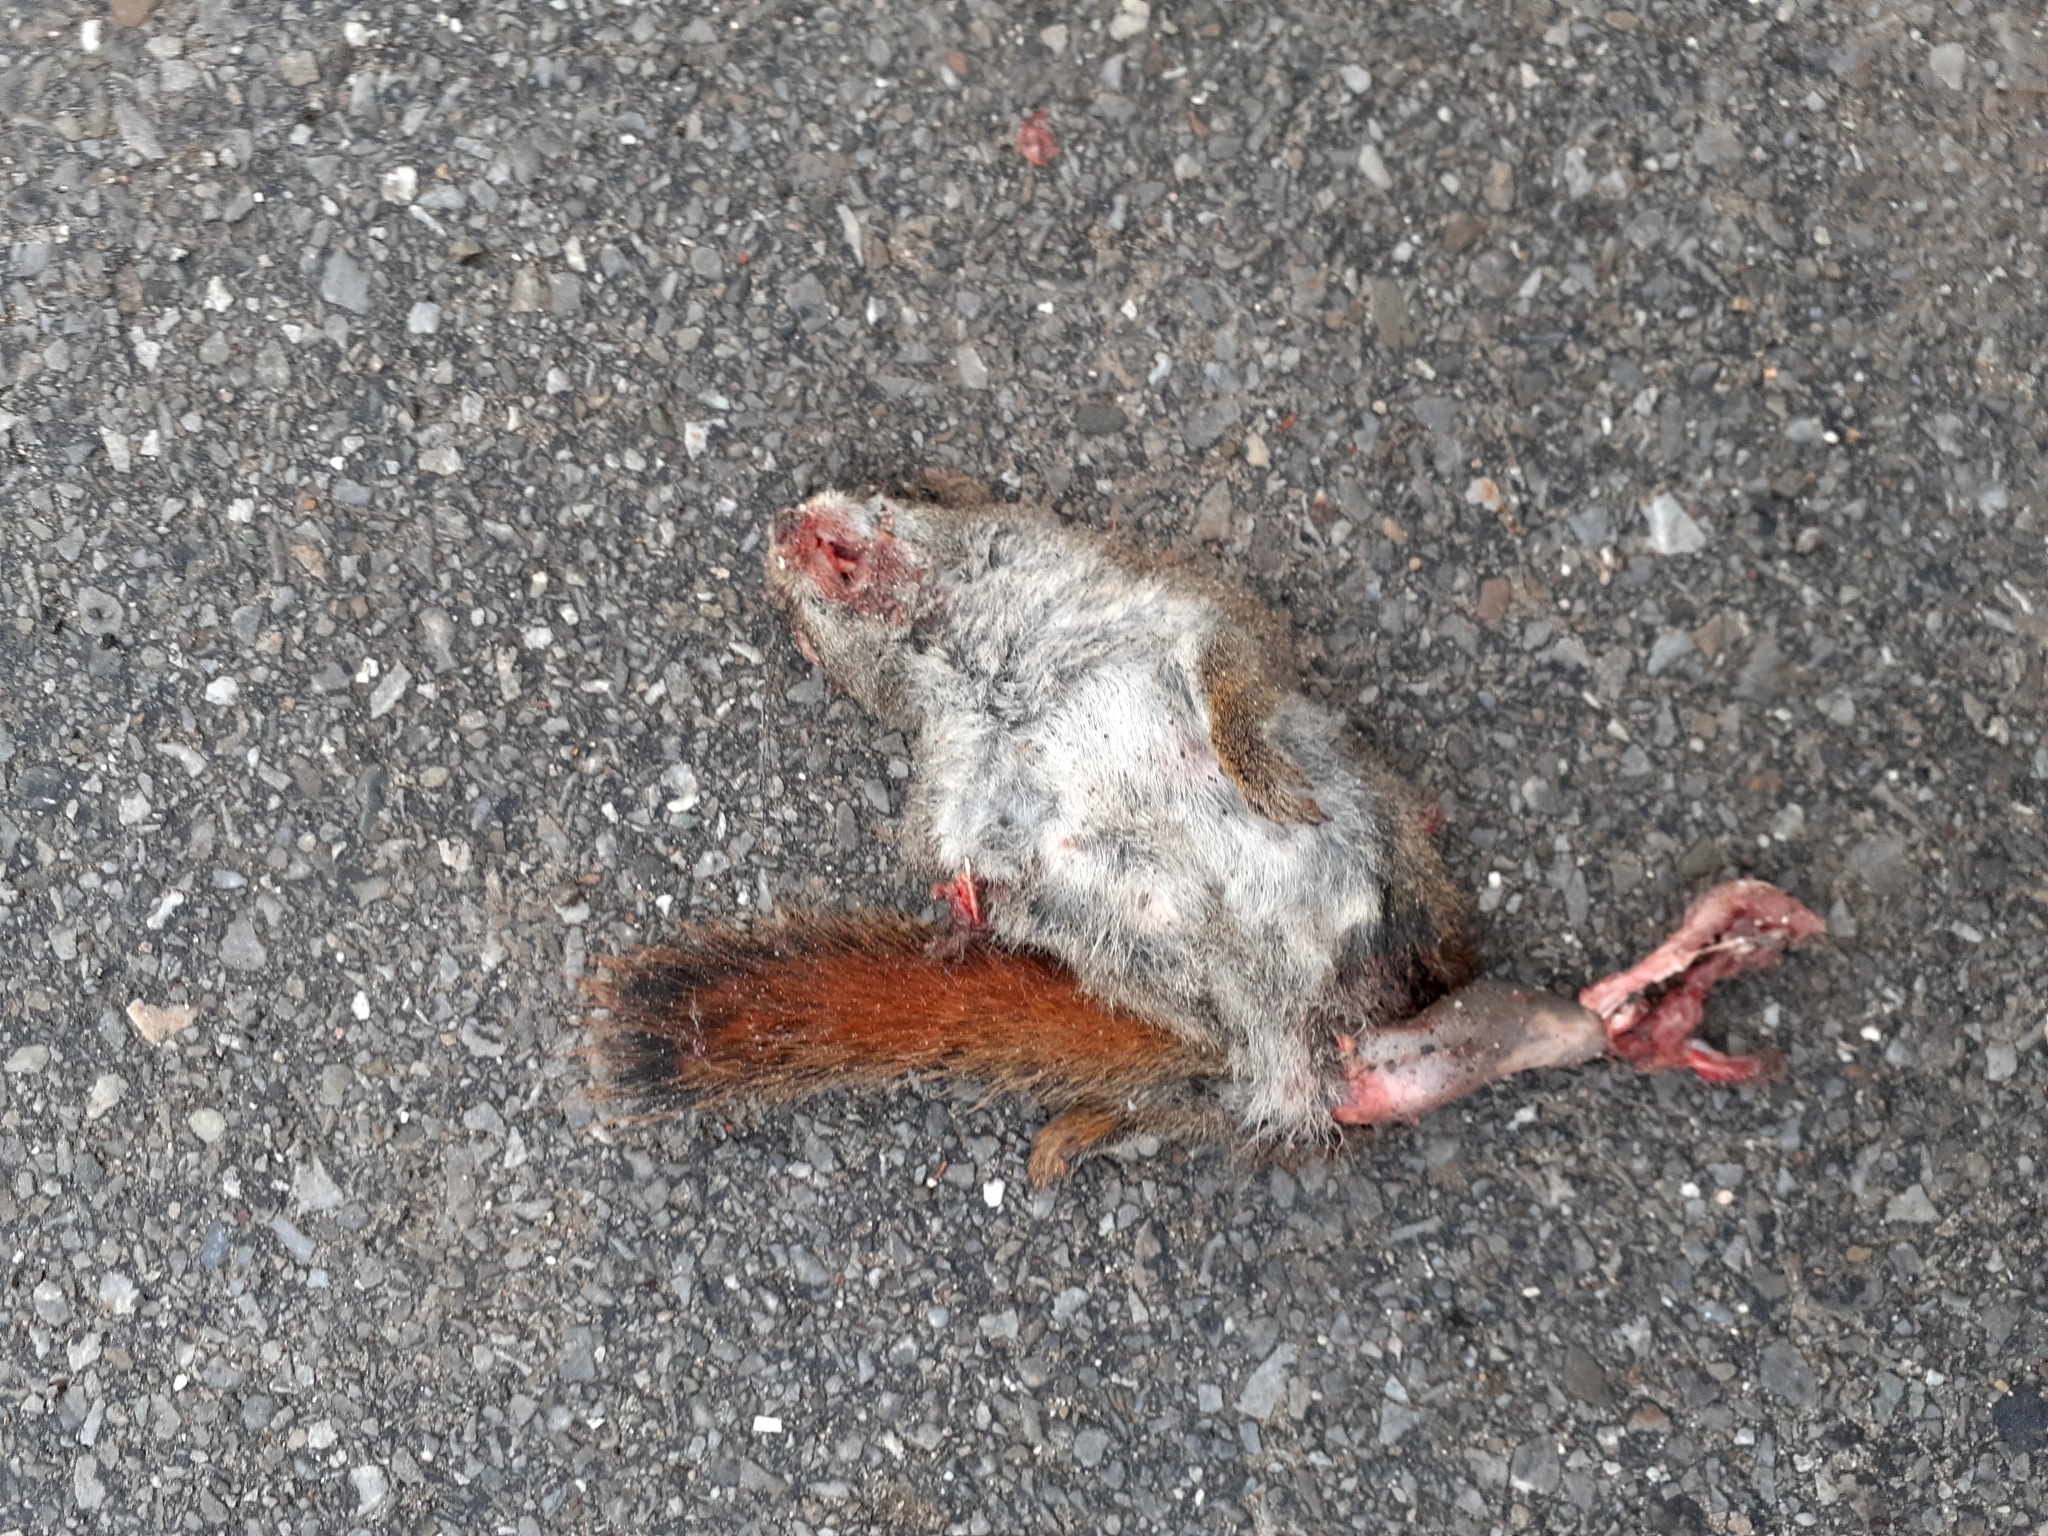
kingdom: Animalia
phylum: Chordata
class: Mammalia
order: Rodentia
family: Sciuridae
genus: Tamiasciurus
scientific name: Tamiasciurus hudsonicus
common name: Red squirrel
